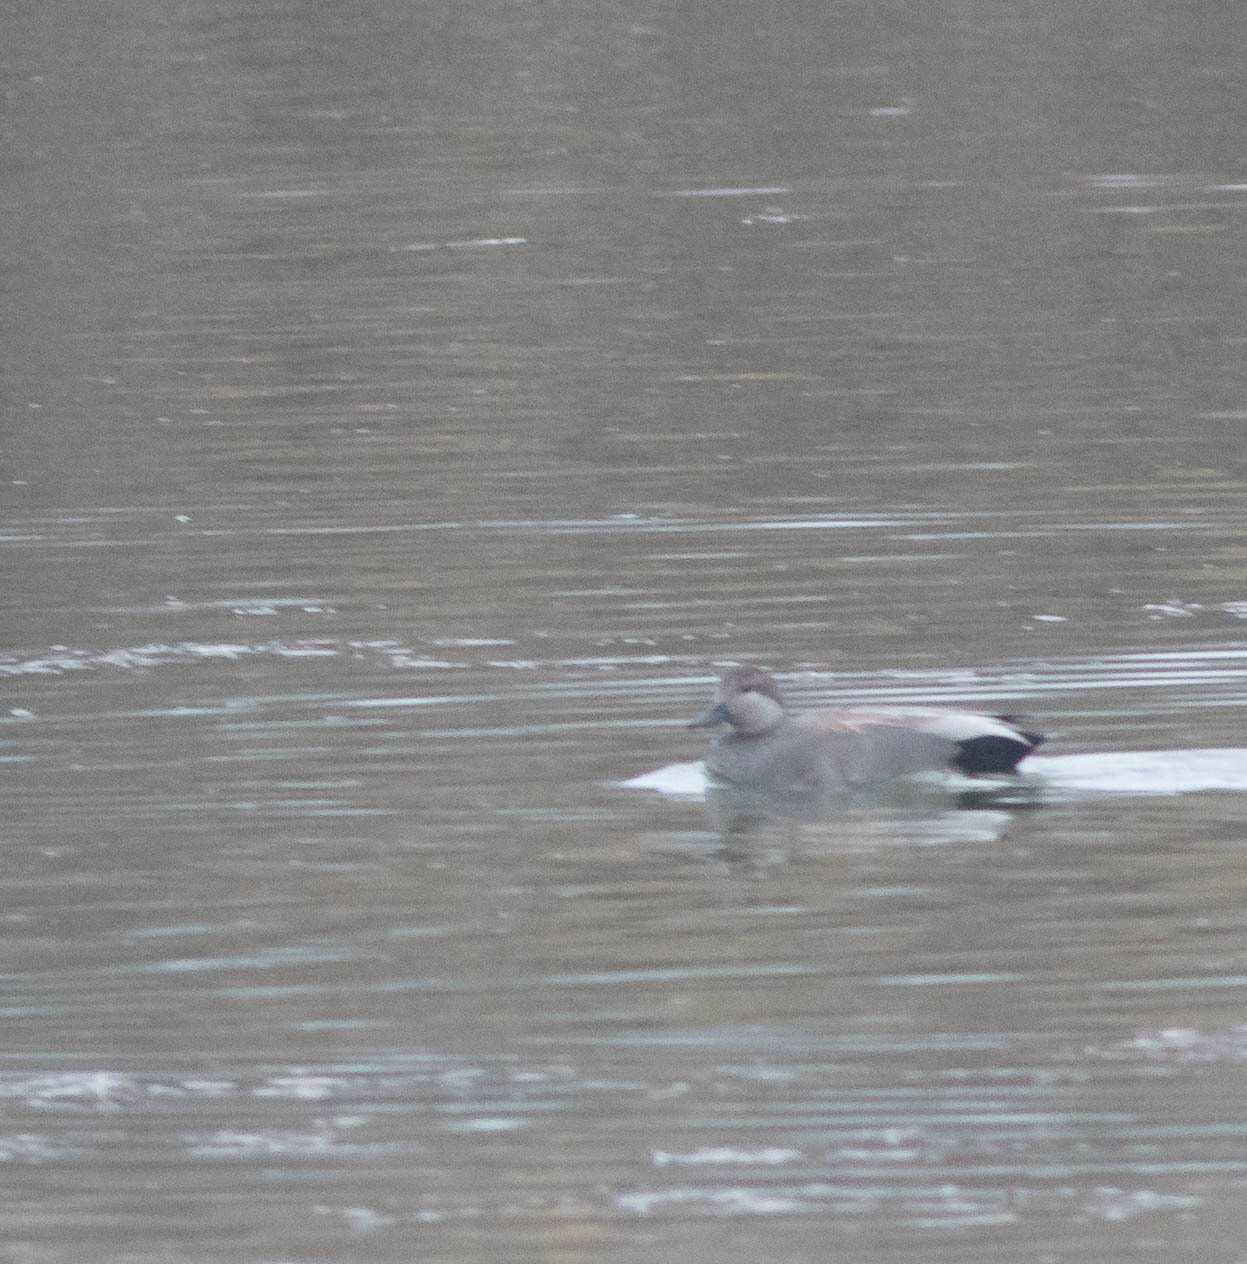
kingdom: Animalia
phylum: Chordata
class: Aves
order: Anseriformes
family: Anatidae
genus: Mareca
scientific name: Mareca strepera
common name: Gadwall
